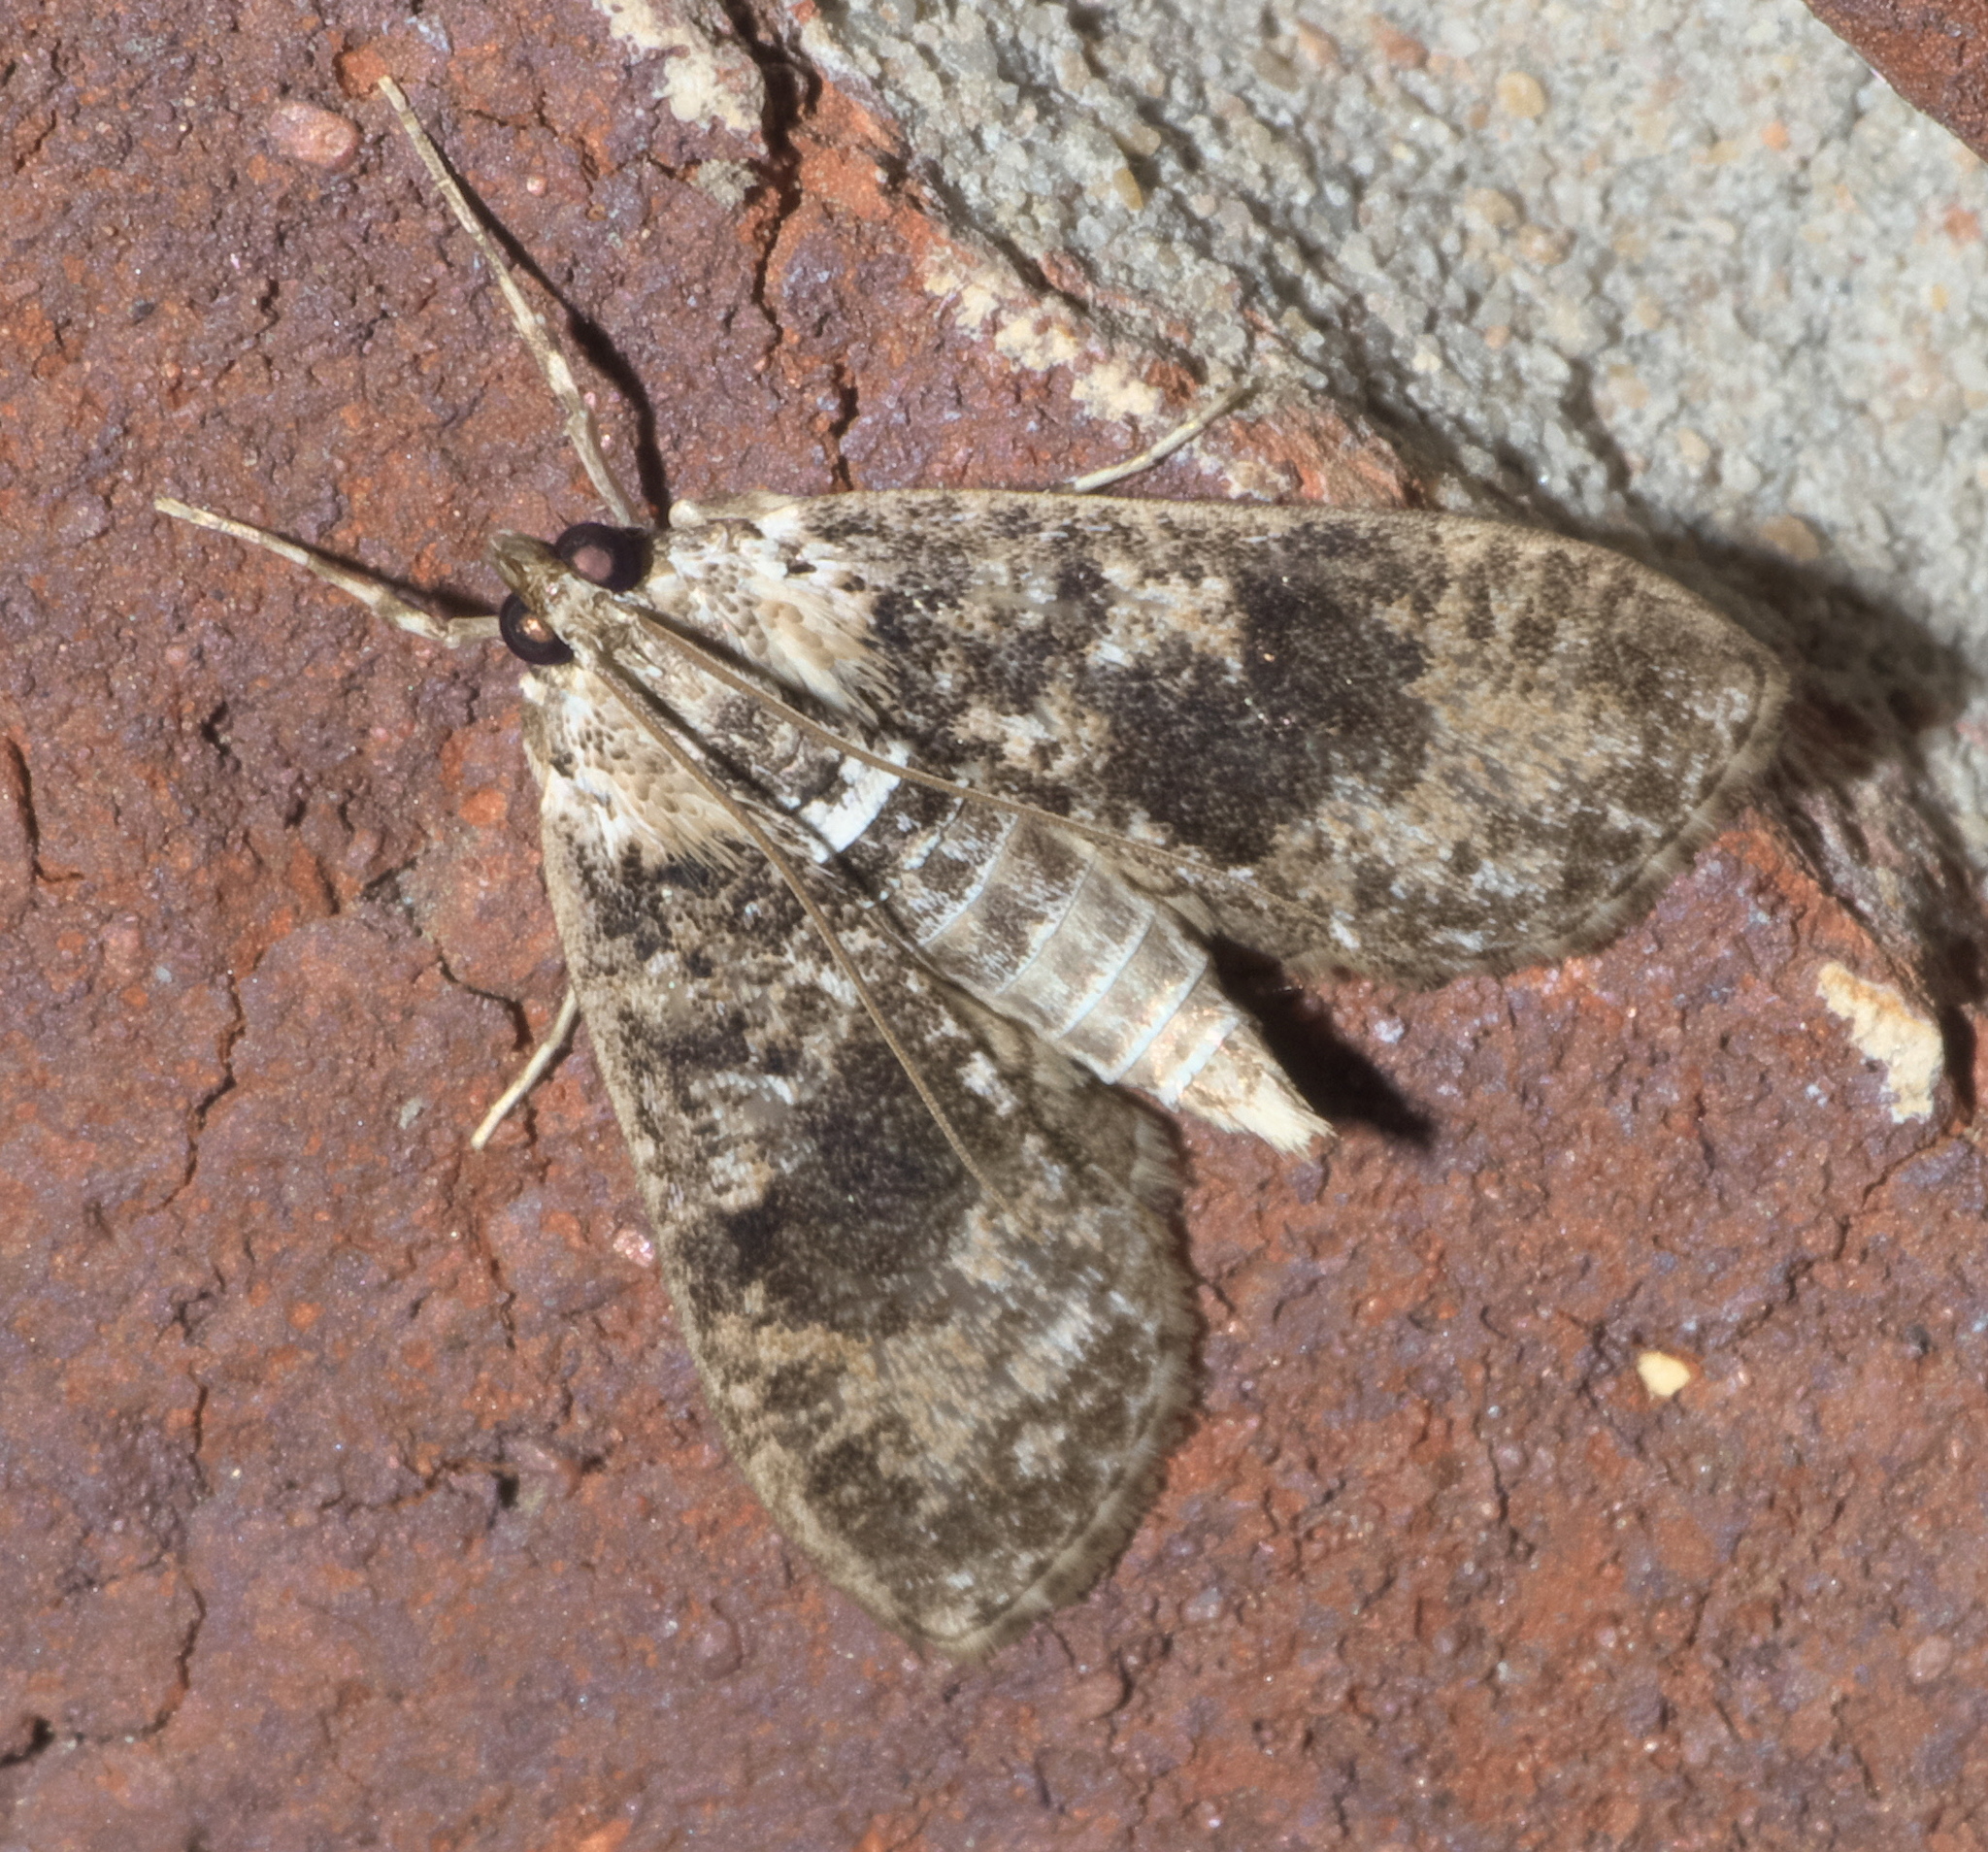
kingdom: Animalia
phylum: Arthropoda
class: Insecta
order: Lepidoptera
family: Crambidae
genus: Palpita
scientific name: Palpita magniferalis
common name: Splendid palpita moth
